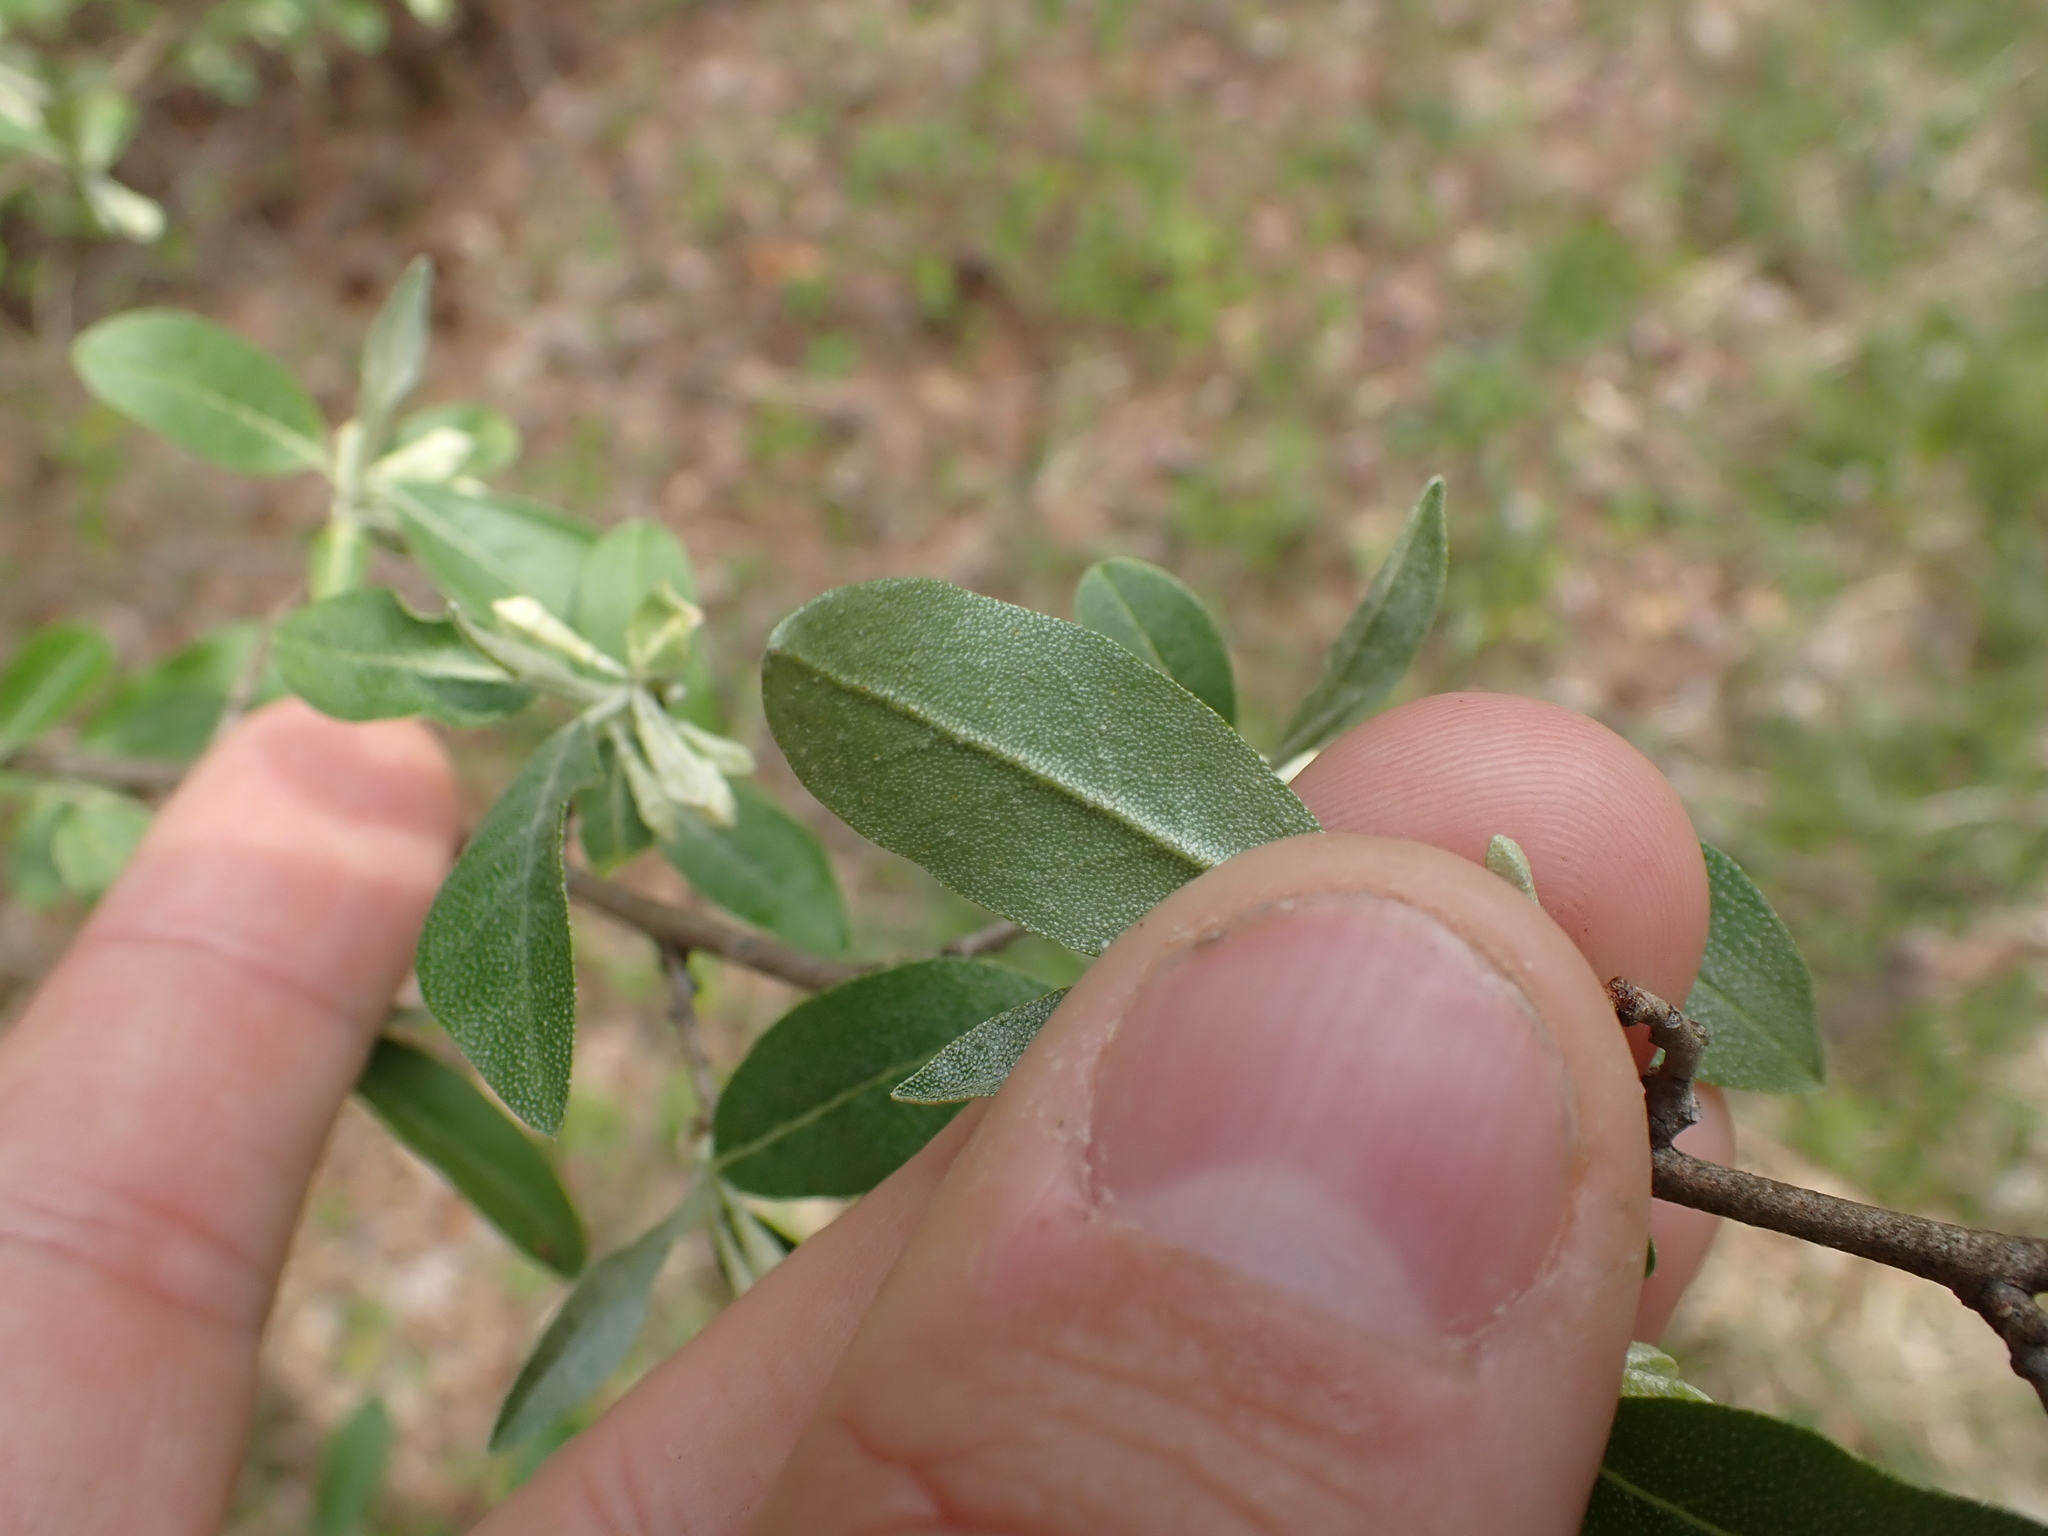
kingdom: Plantae
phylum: Tracheophyta
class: Magnoliopsida
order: Rosales
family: Elaeagnaceae
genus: Elaeagnus
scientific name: Elaeagnus umbellata
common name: Autumn olive
